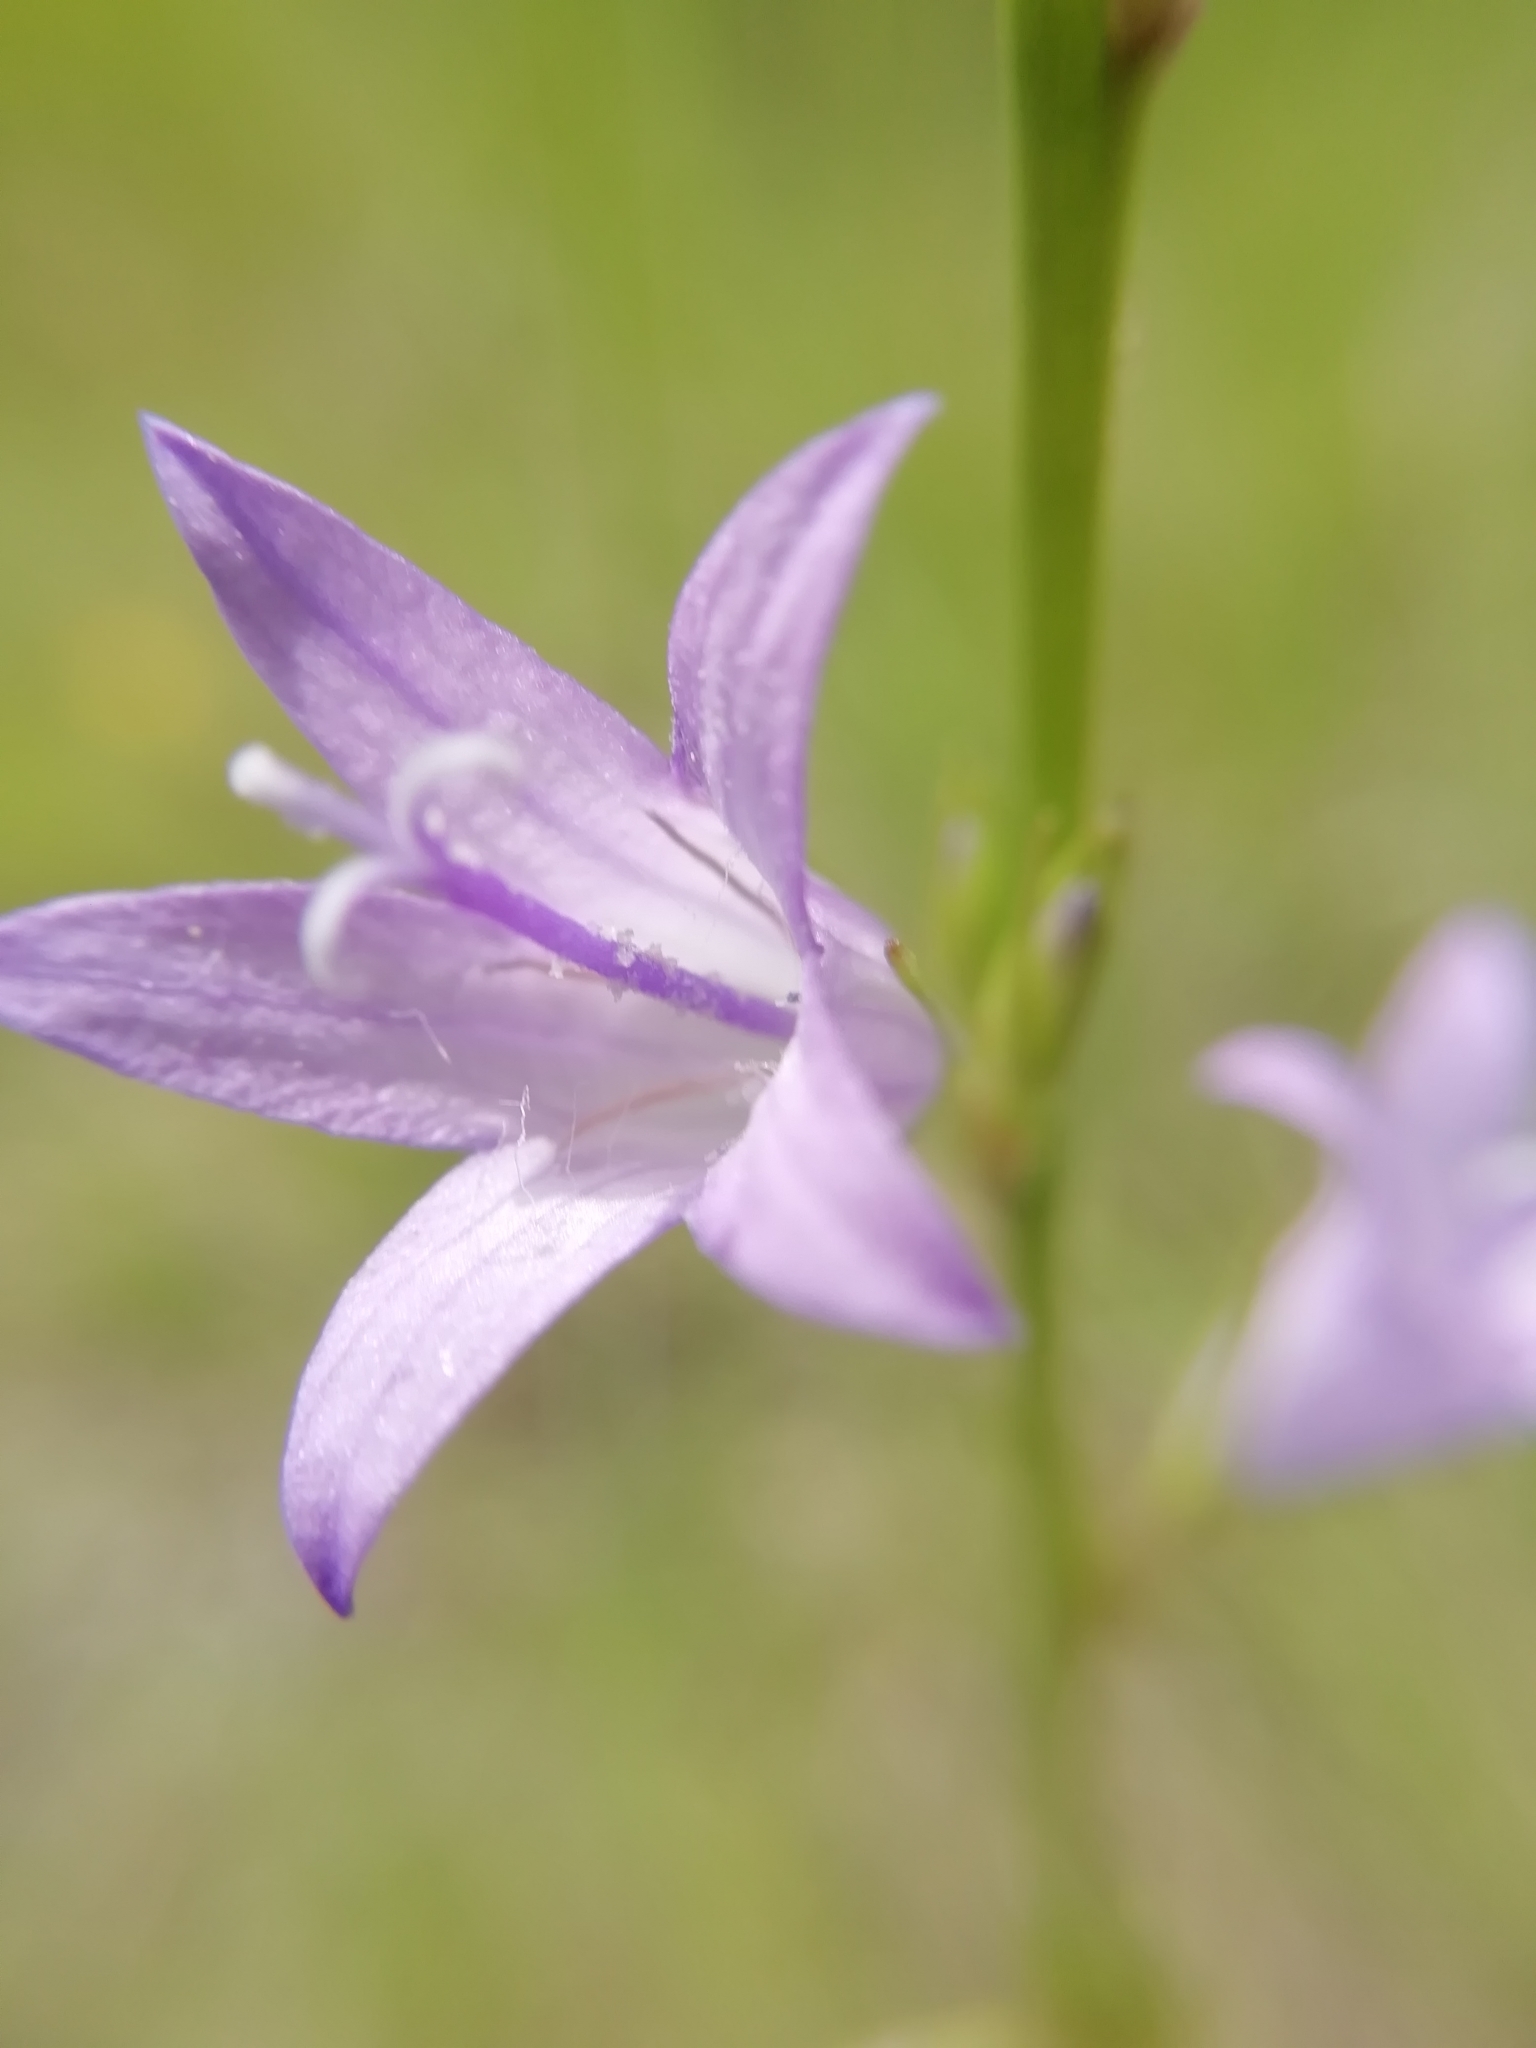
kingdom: Plantae
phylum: Tracheophyta
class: Magnoliopsida
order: Asterales
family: Campanulaceae
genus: Campanula
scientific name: Campanula rapunculus
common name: Rampion bellflower
